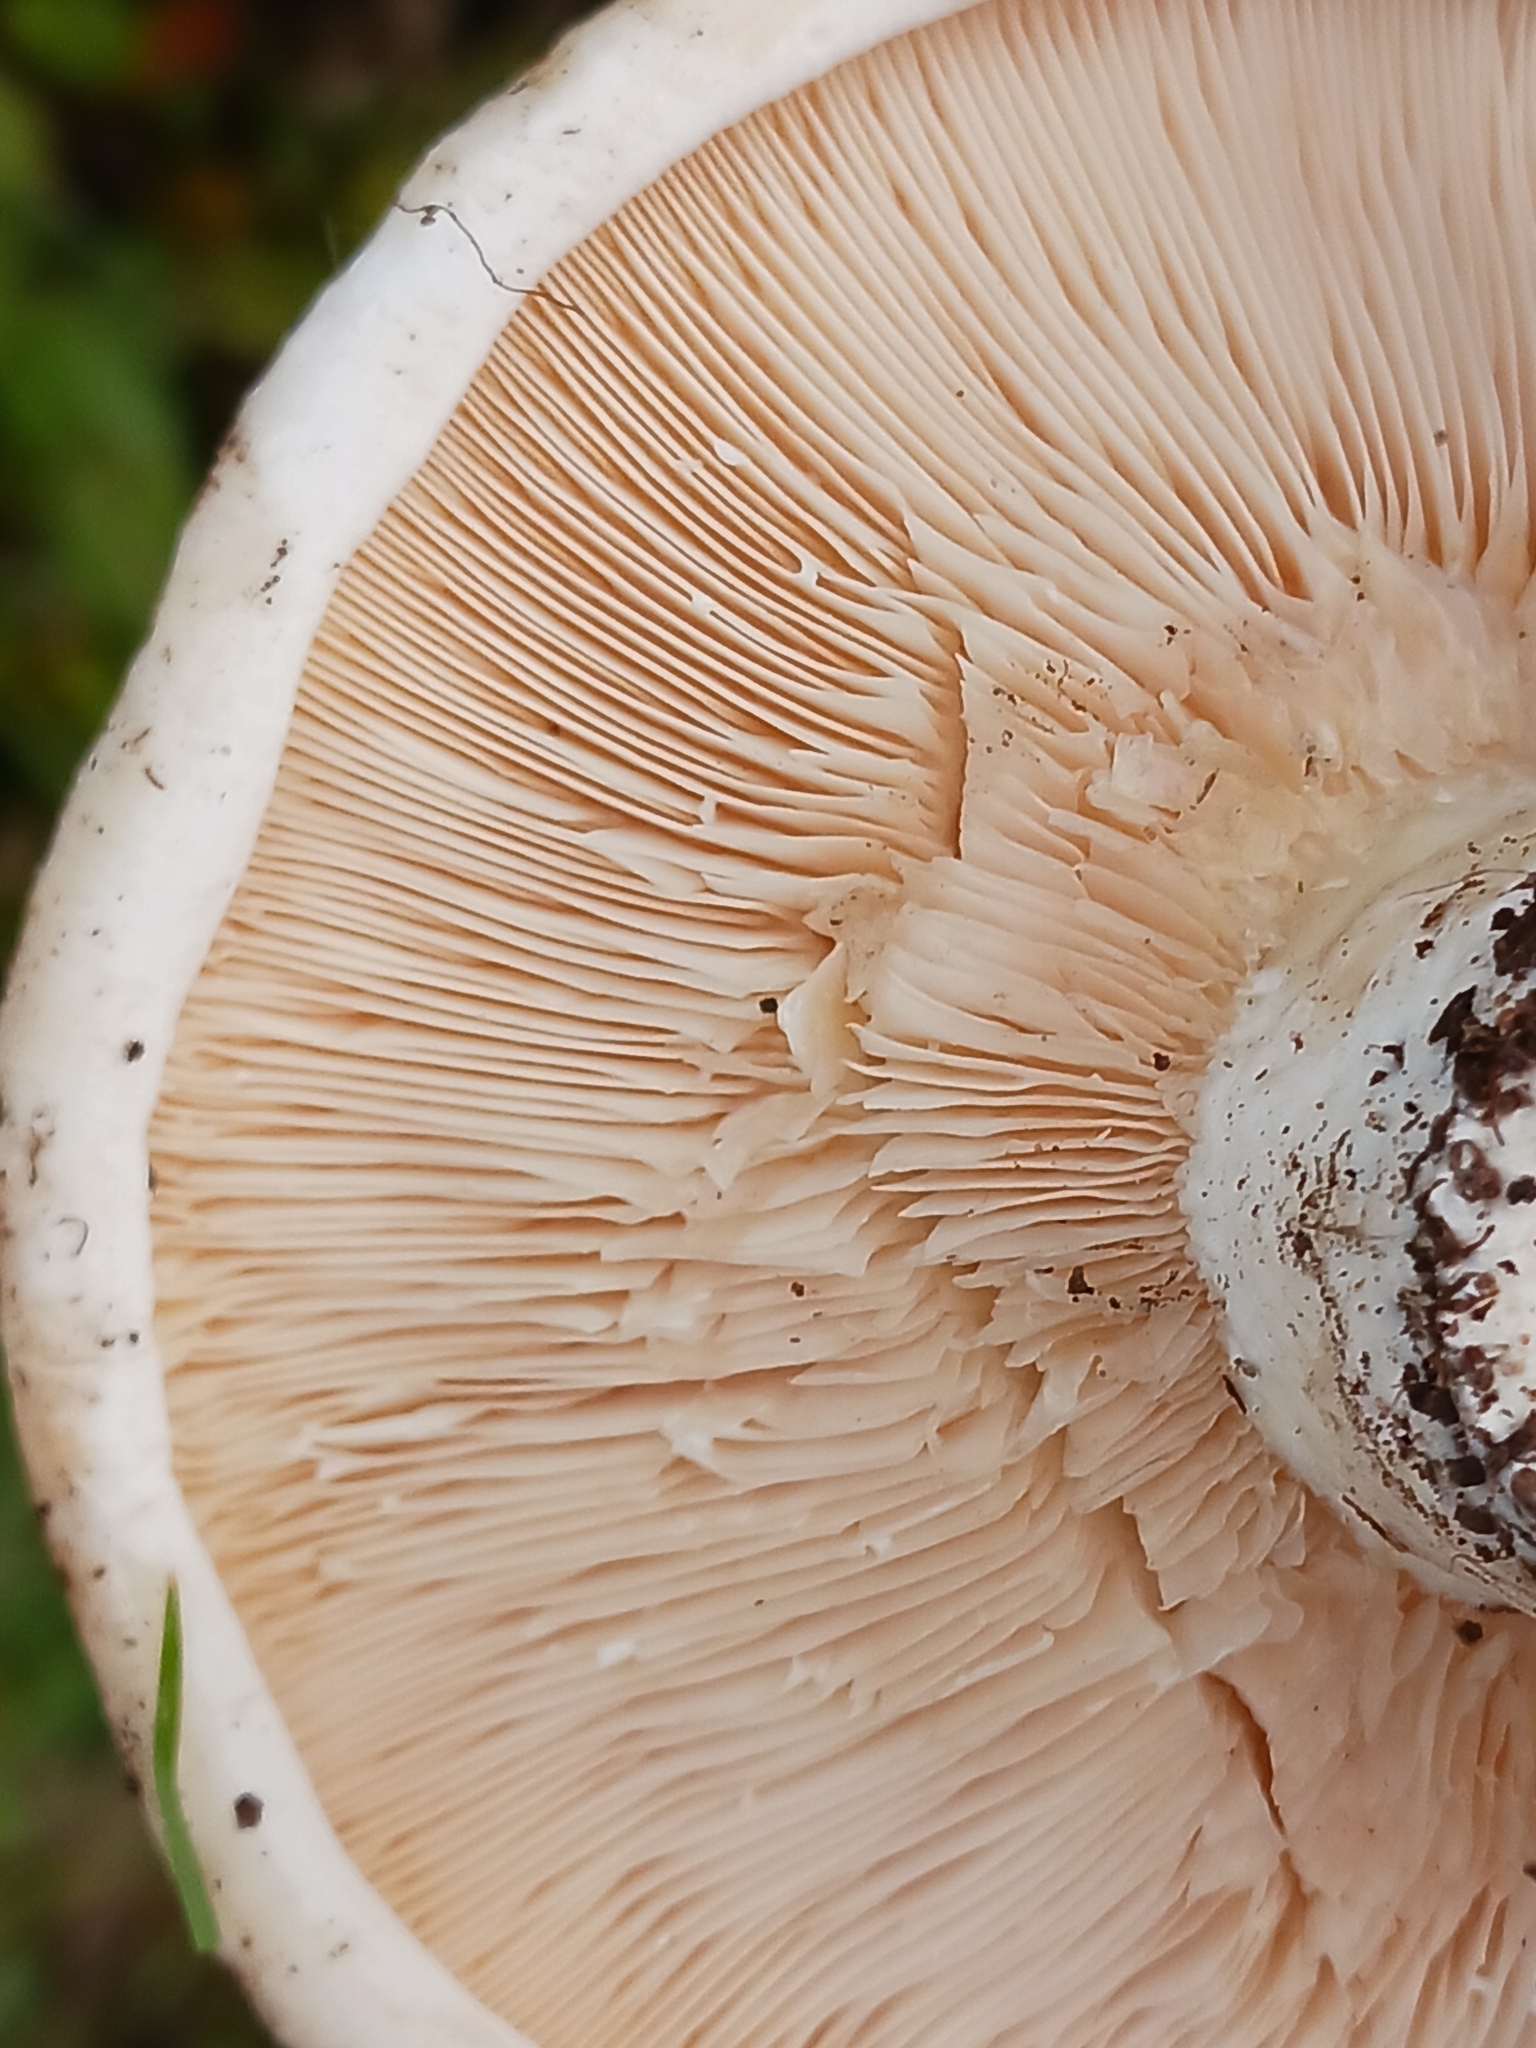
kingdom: Fungi
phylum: Basidiomycota
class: Agaricomycetes
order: Russulales
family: Russulaceae
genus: Lactarius
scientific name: Lactarius controversus
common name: Blushing milkcap
